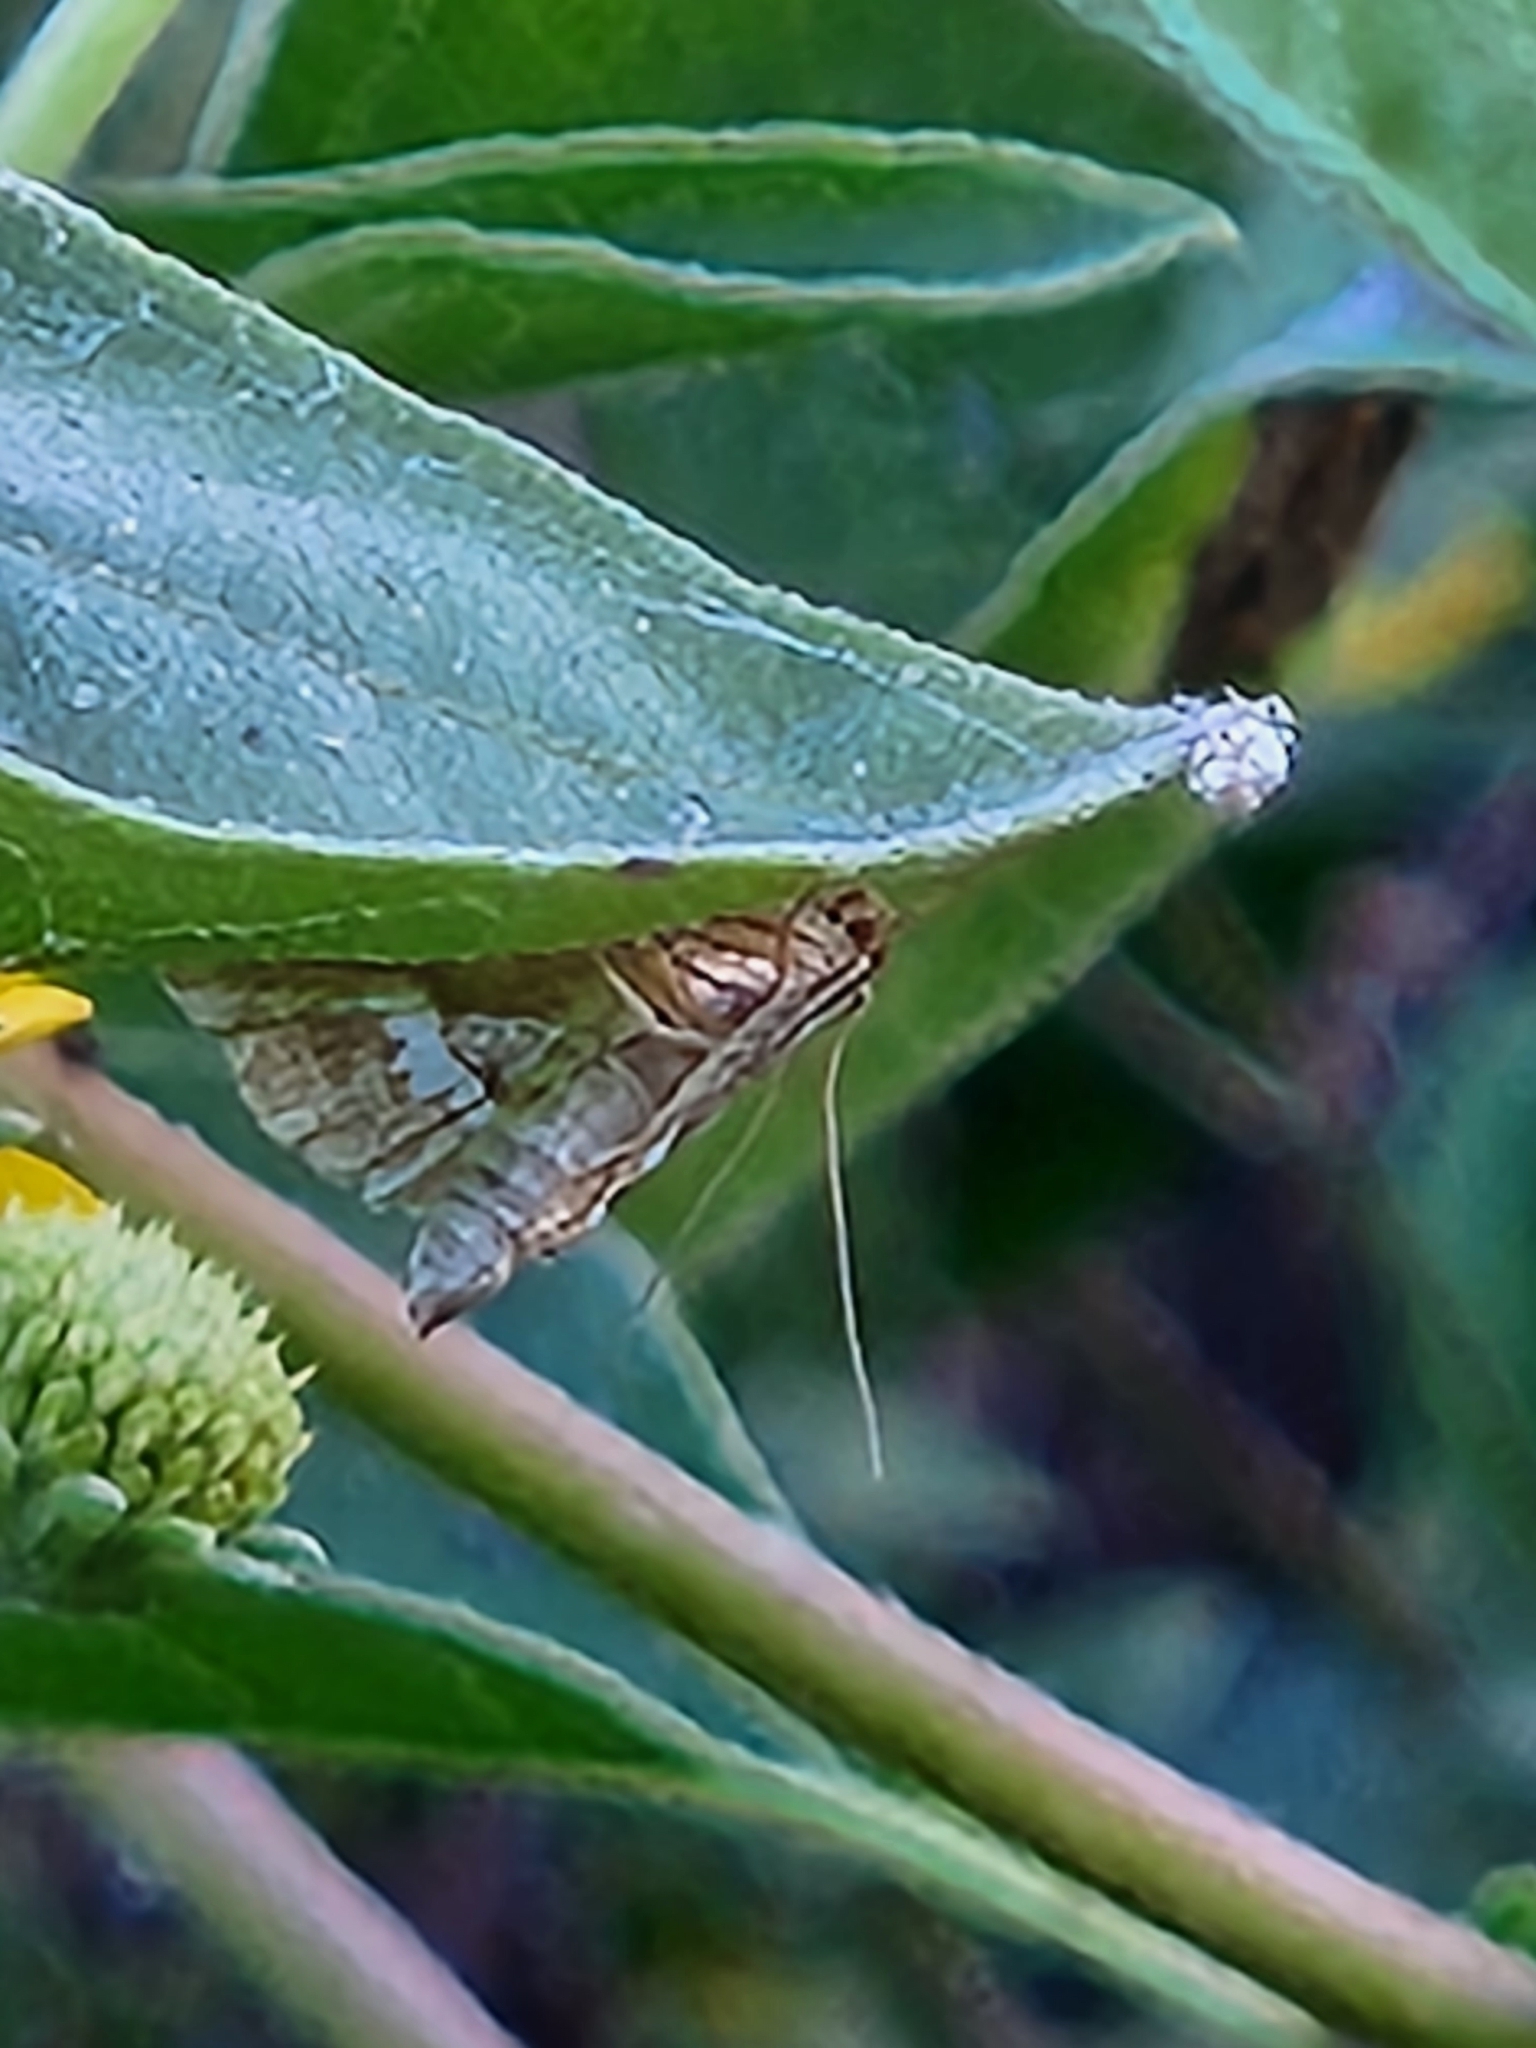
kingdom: Animalia
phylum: Arthropoda
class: Insecta
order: Lepidoptera
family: Crambidae
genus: Spoladea
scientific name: Spoladea recurvalis
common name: Beet webworm moth
